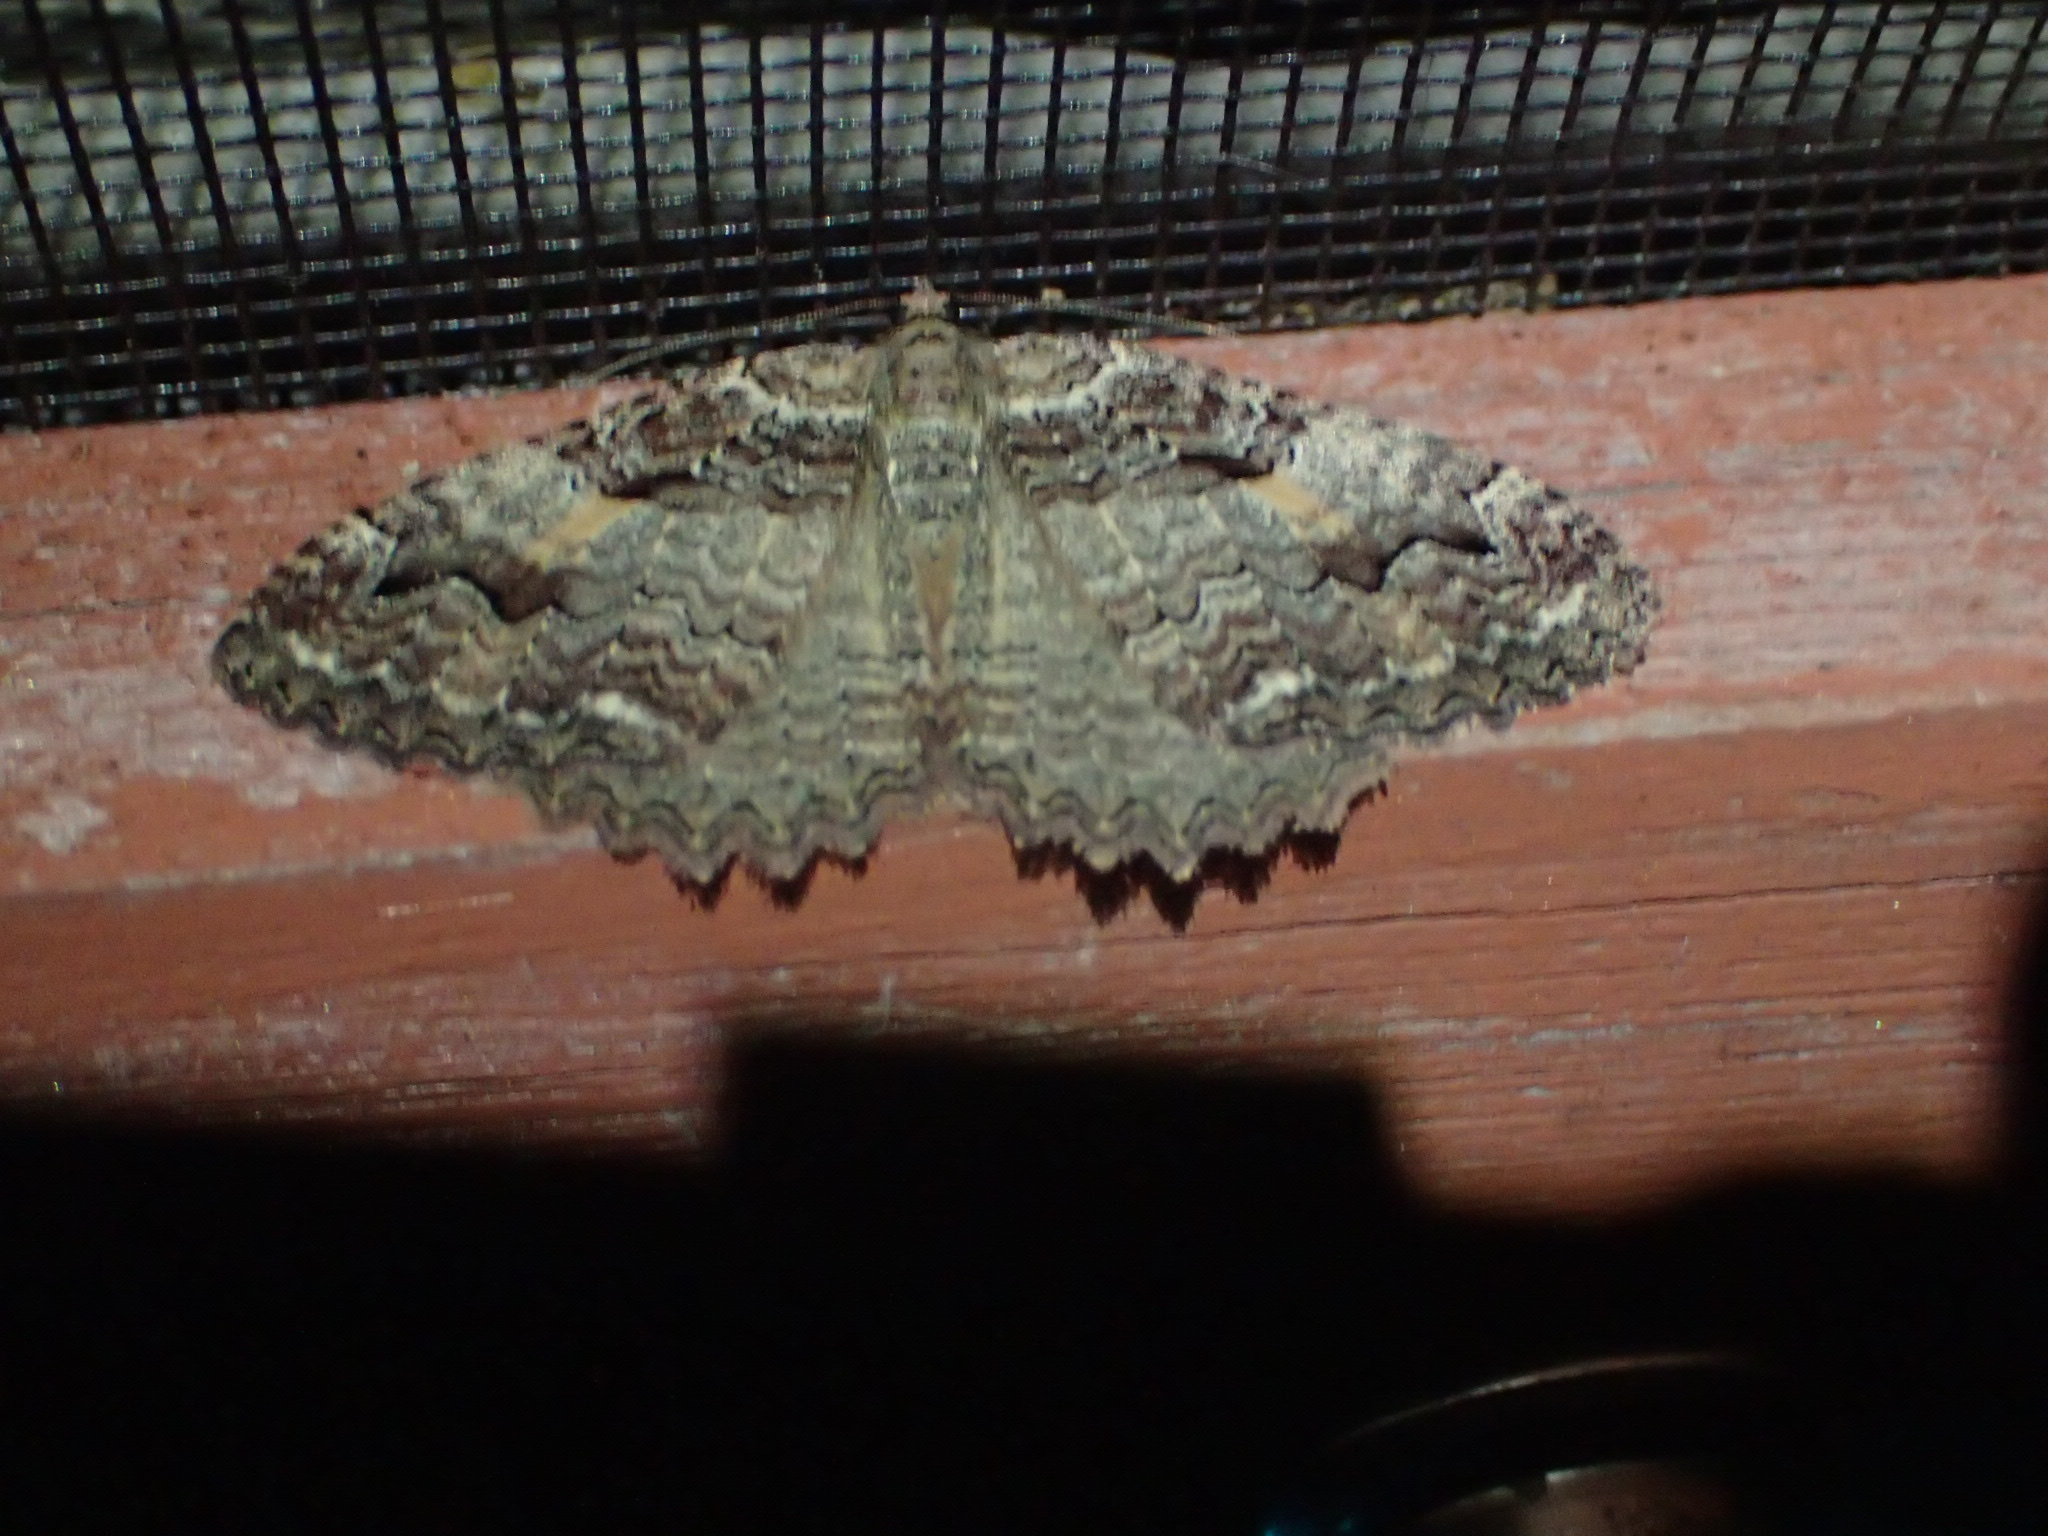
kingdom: Animalia
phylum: Arthropoda
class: Insecta
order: Lepidoptera
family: Geometridae
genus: Triphosa
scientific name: Triphosa haesitata
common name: Tissue moth
